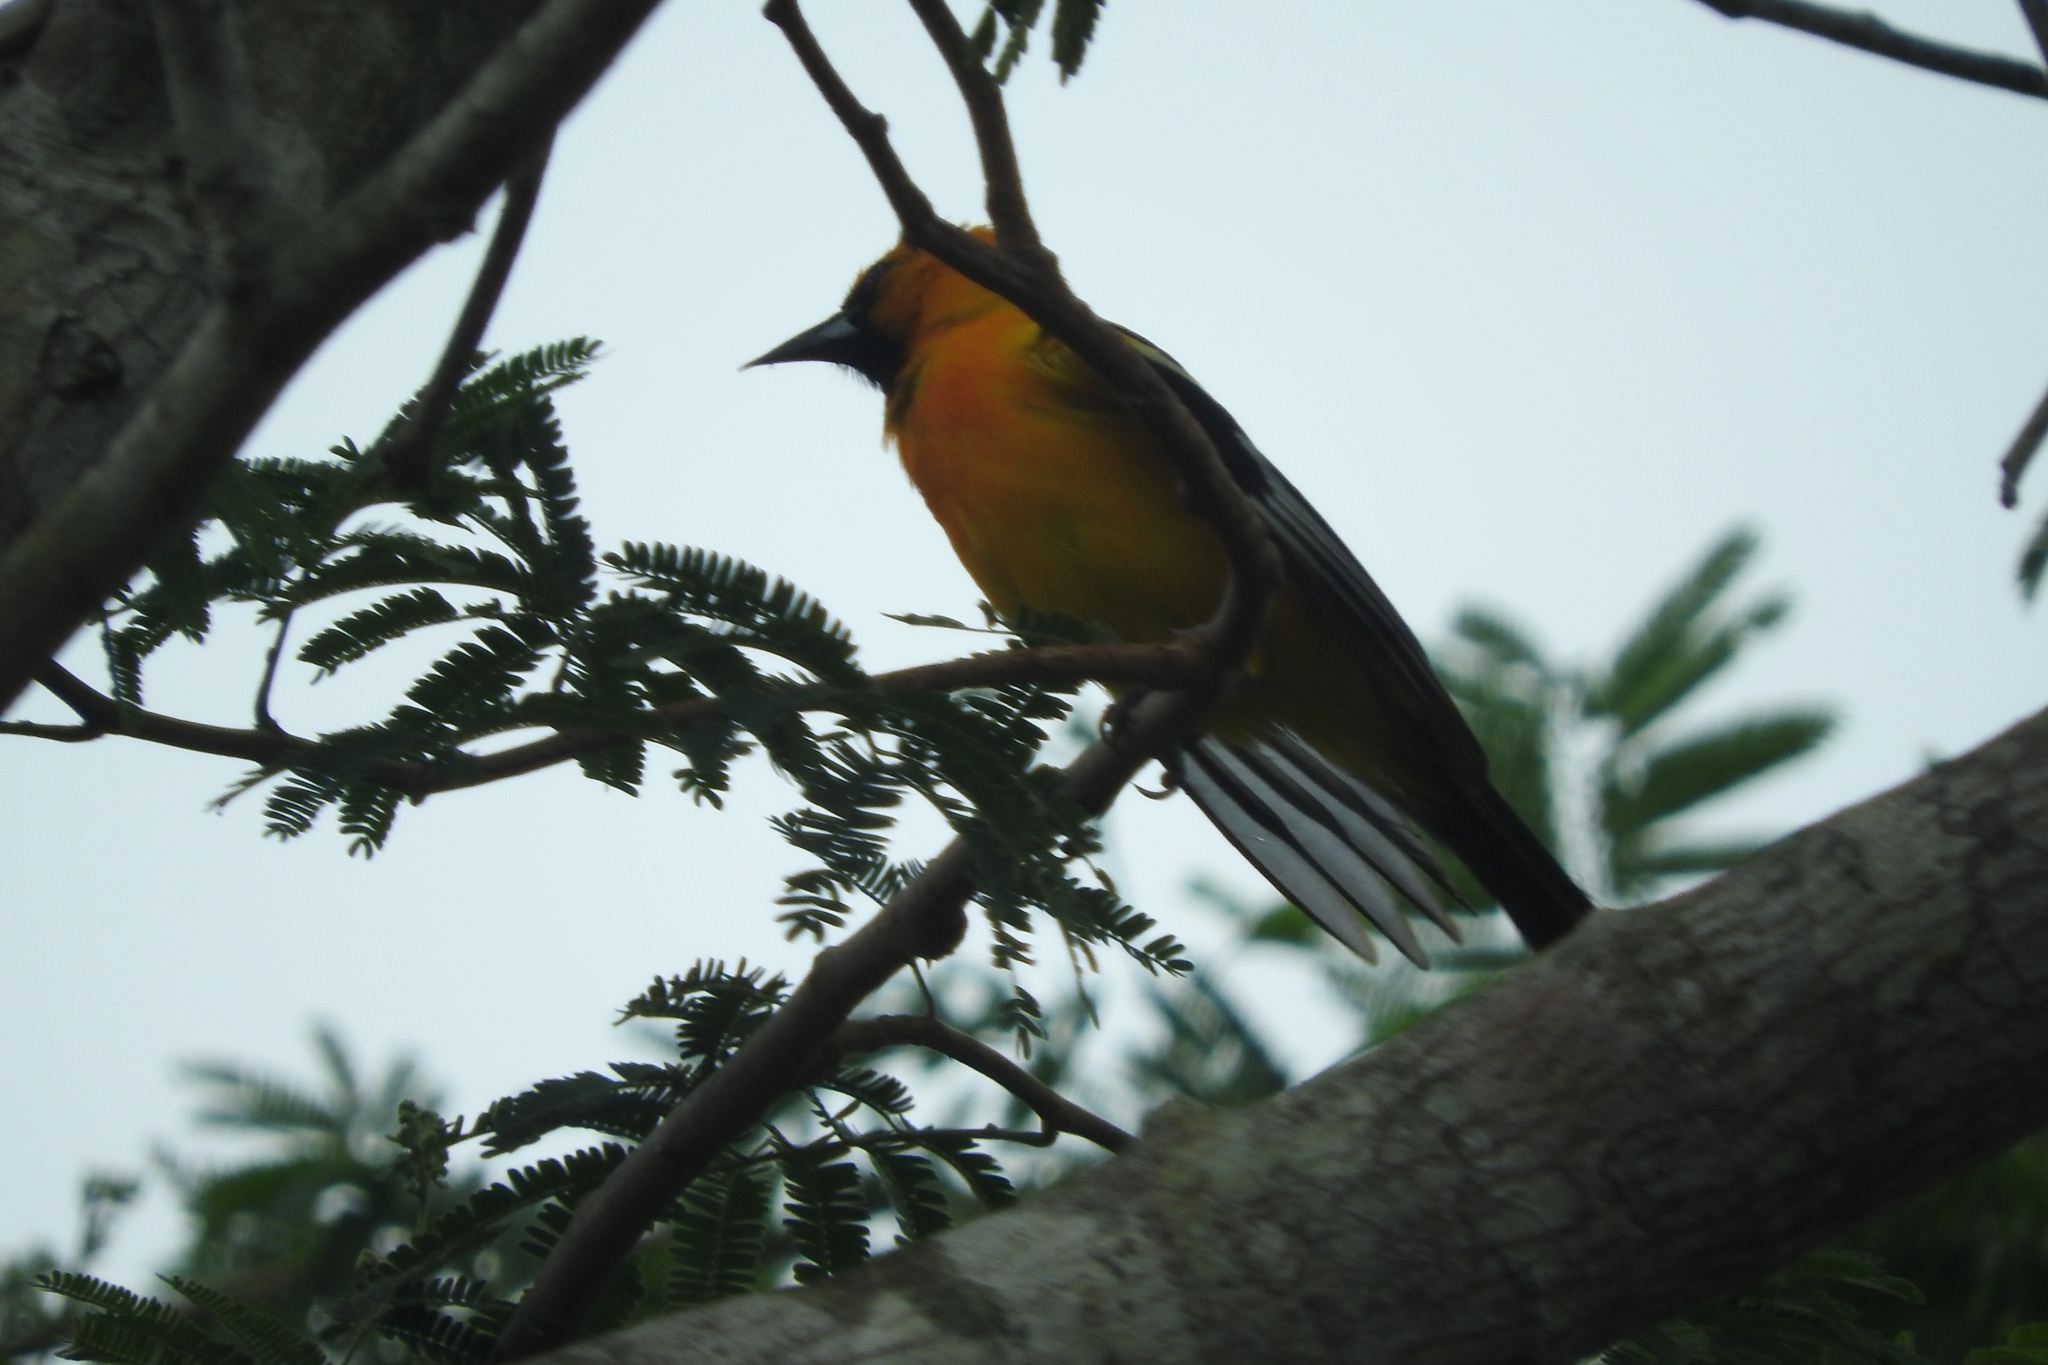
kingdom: Animalia
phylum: Chordata
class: Aves
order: Passeriformes
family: Icteridae
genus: Icterus
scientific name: Icterus auratus
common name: Orange oriole
